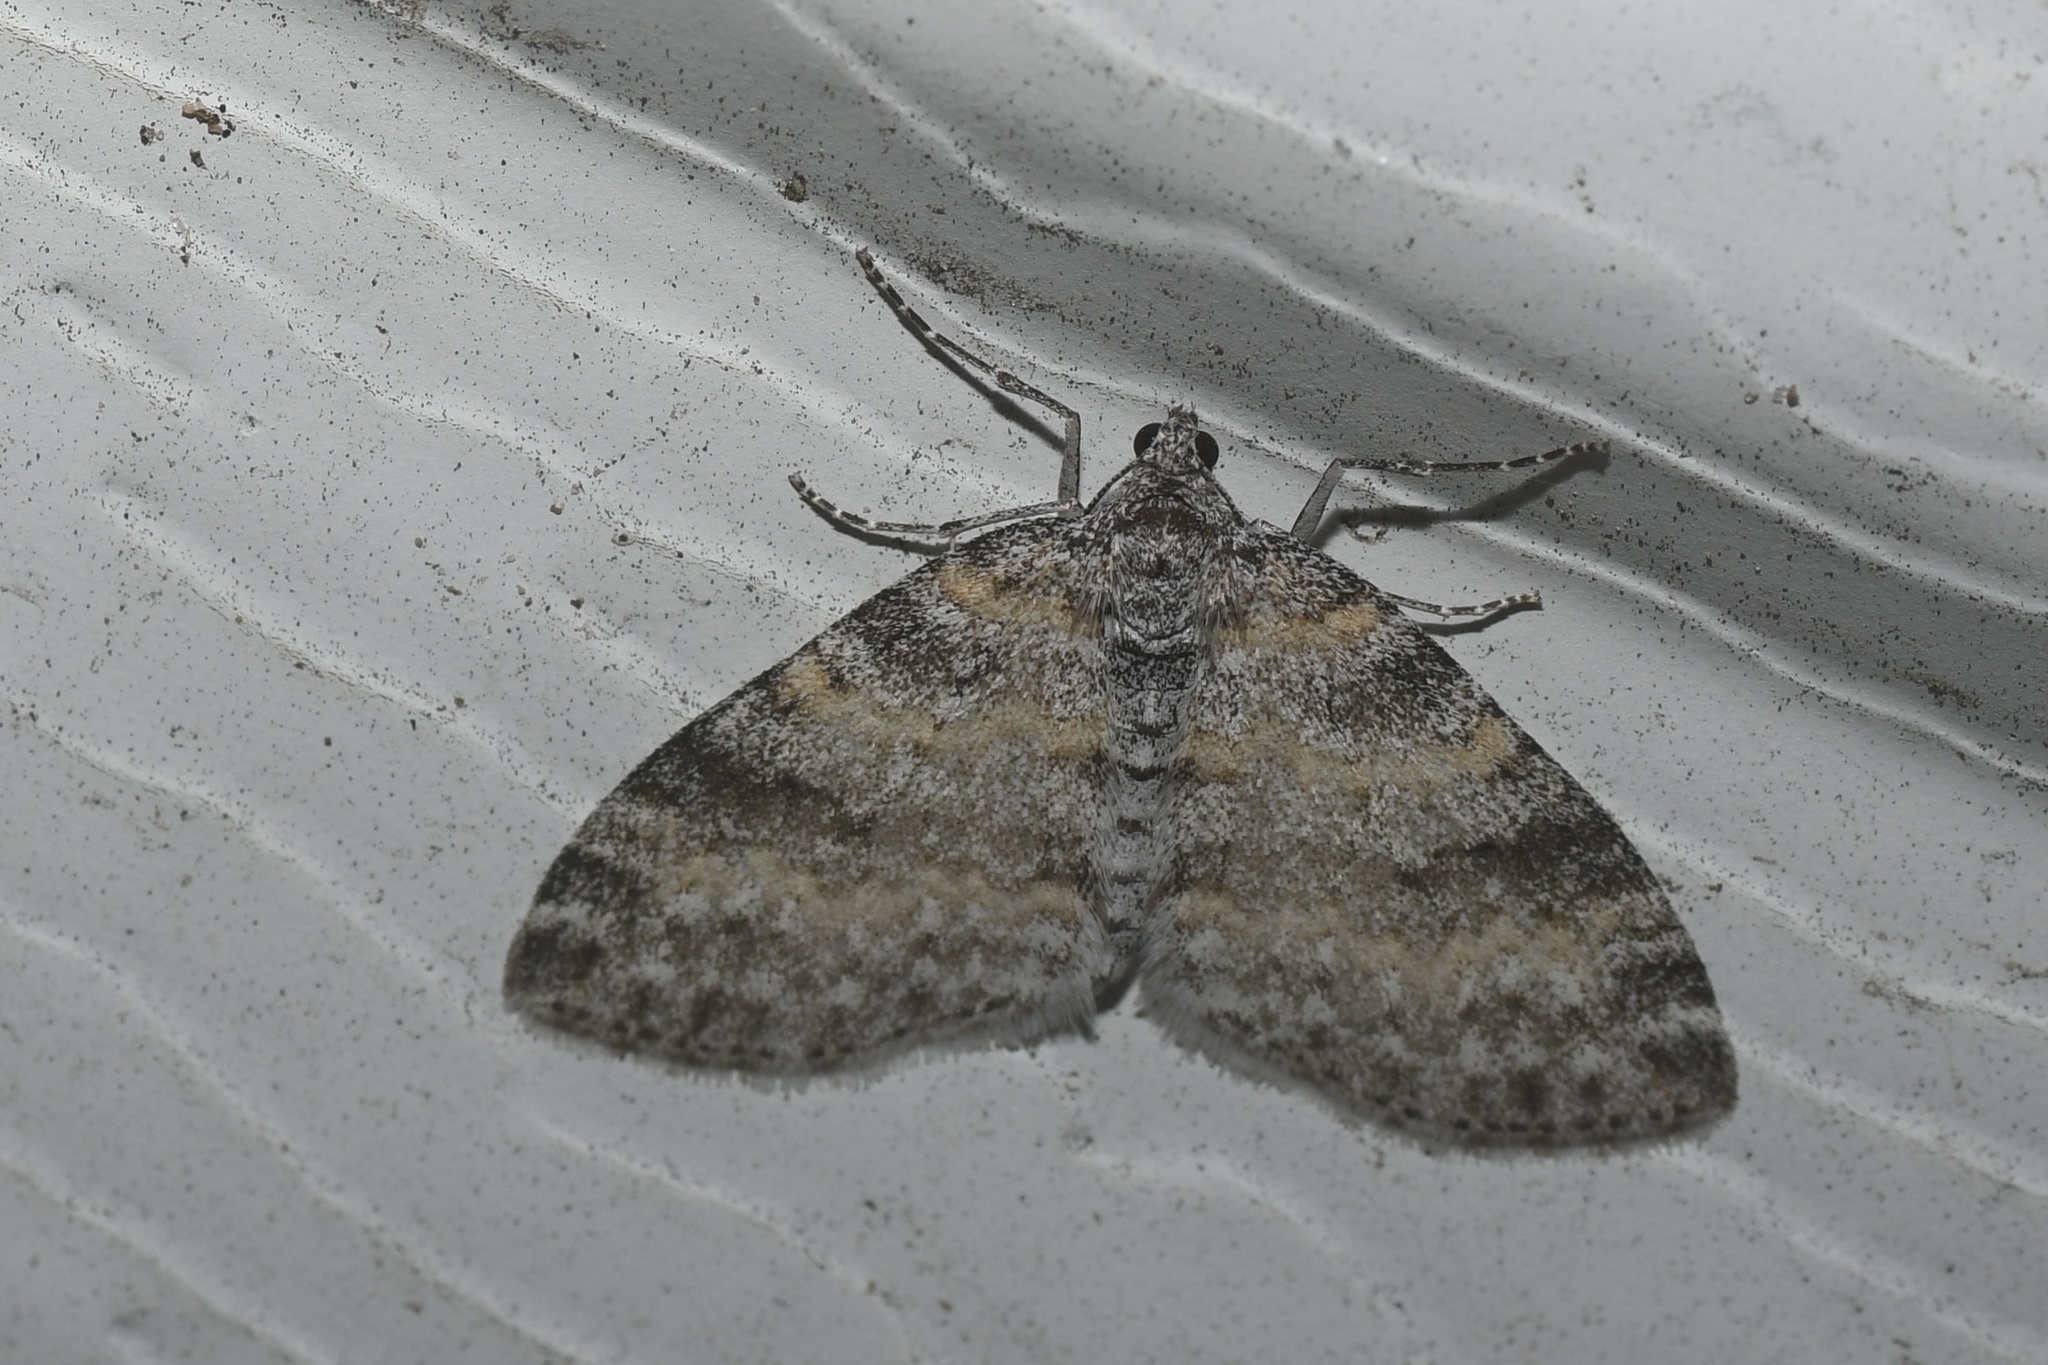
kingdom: Animalia
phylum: Arthropoda
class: Insecta
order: Lepidoptera
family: Geometridae
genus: Lobophora
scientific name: Lobophora nivigerata
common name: Powdered bigwing
